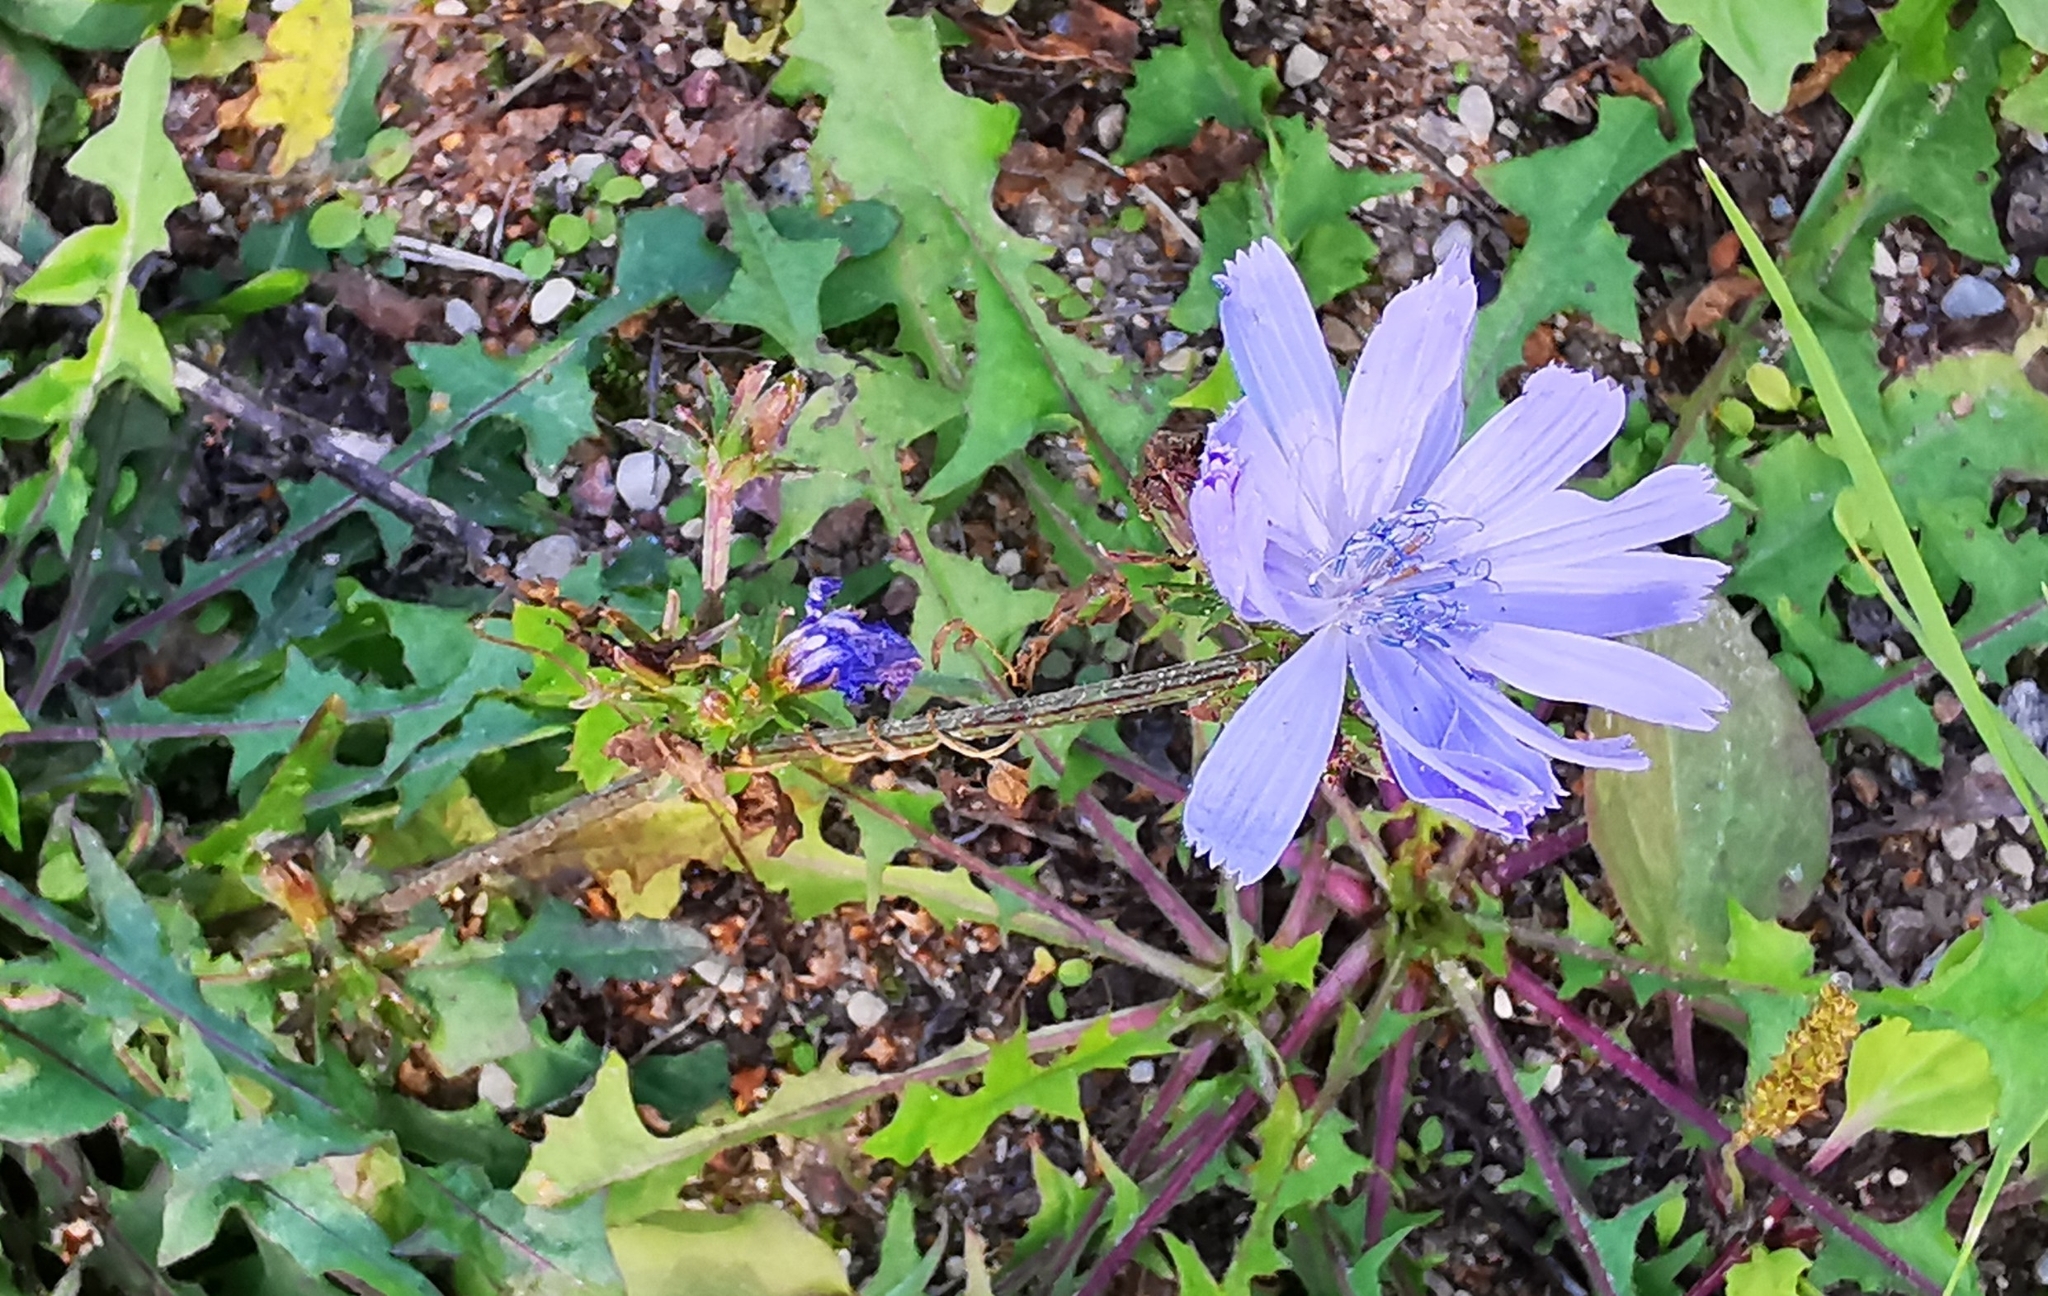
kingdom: Plantae
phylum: Tracheophyta
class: Magnoliopsida
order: Asterales
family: Asteraceae
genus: Cichorium
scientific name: Cichorium intybus
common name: Chicory
